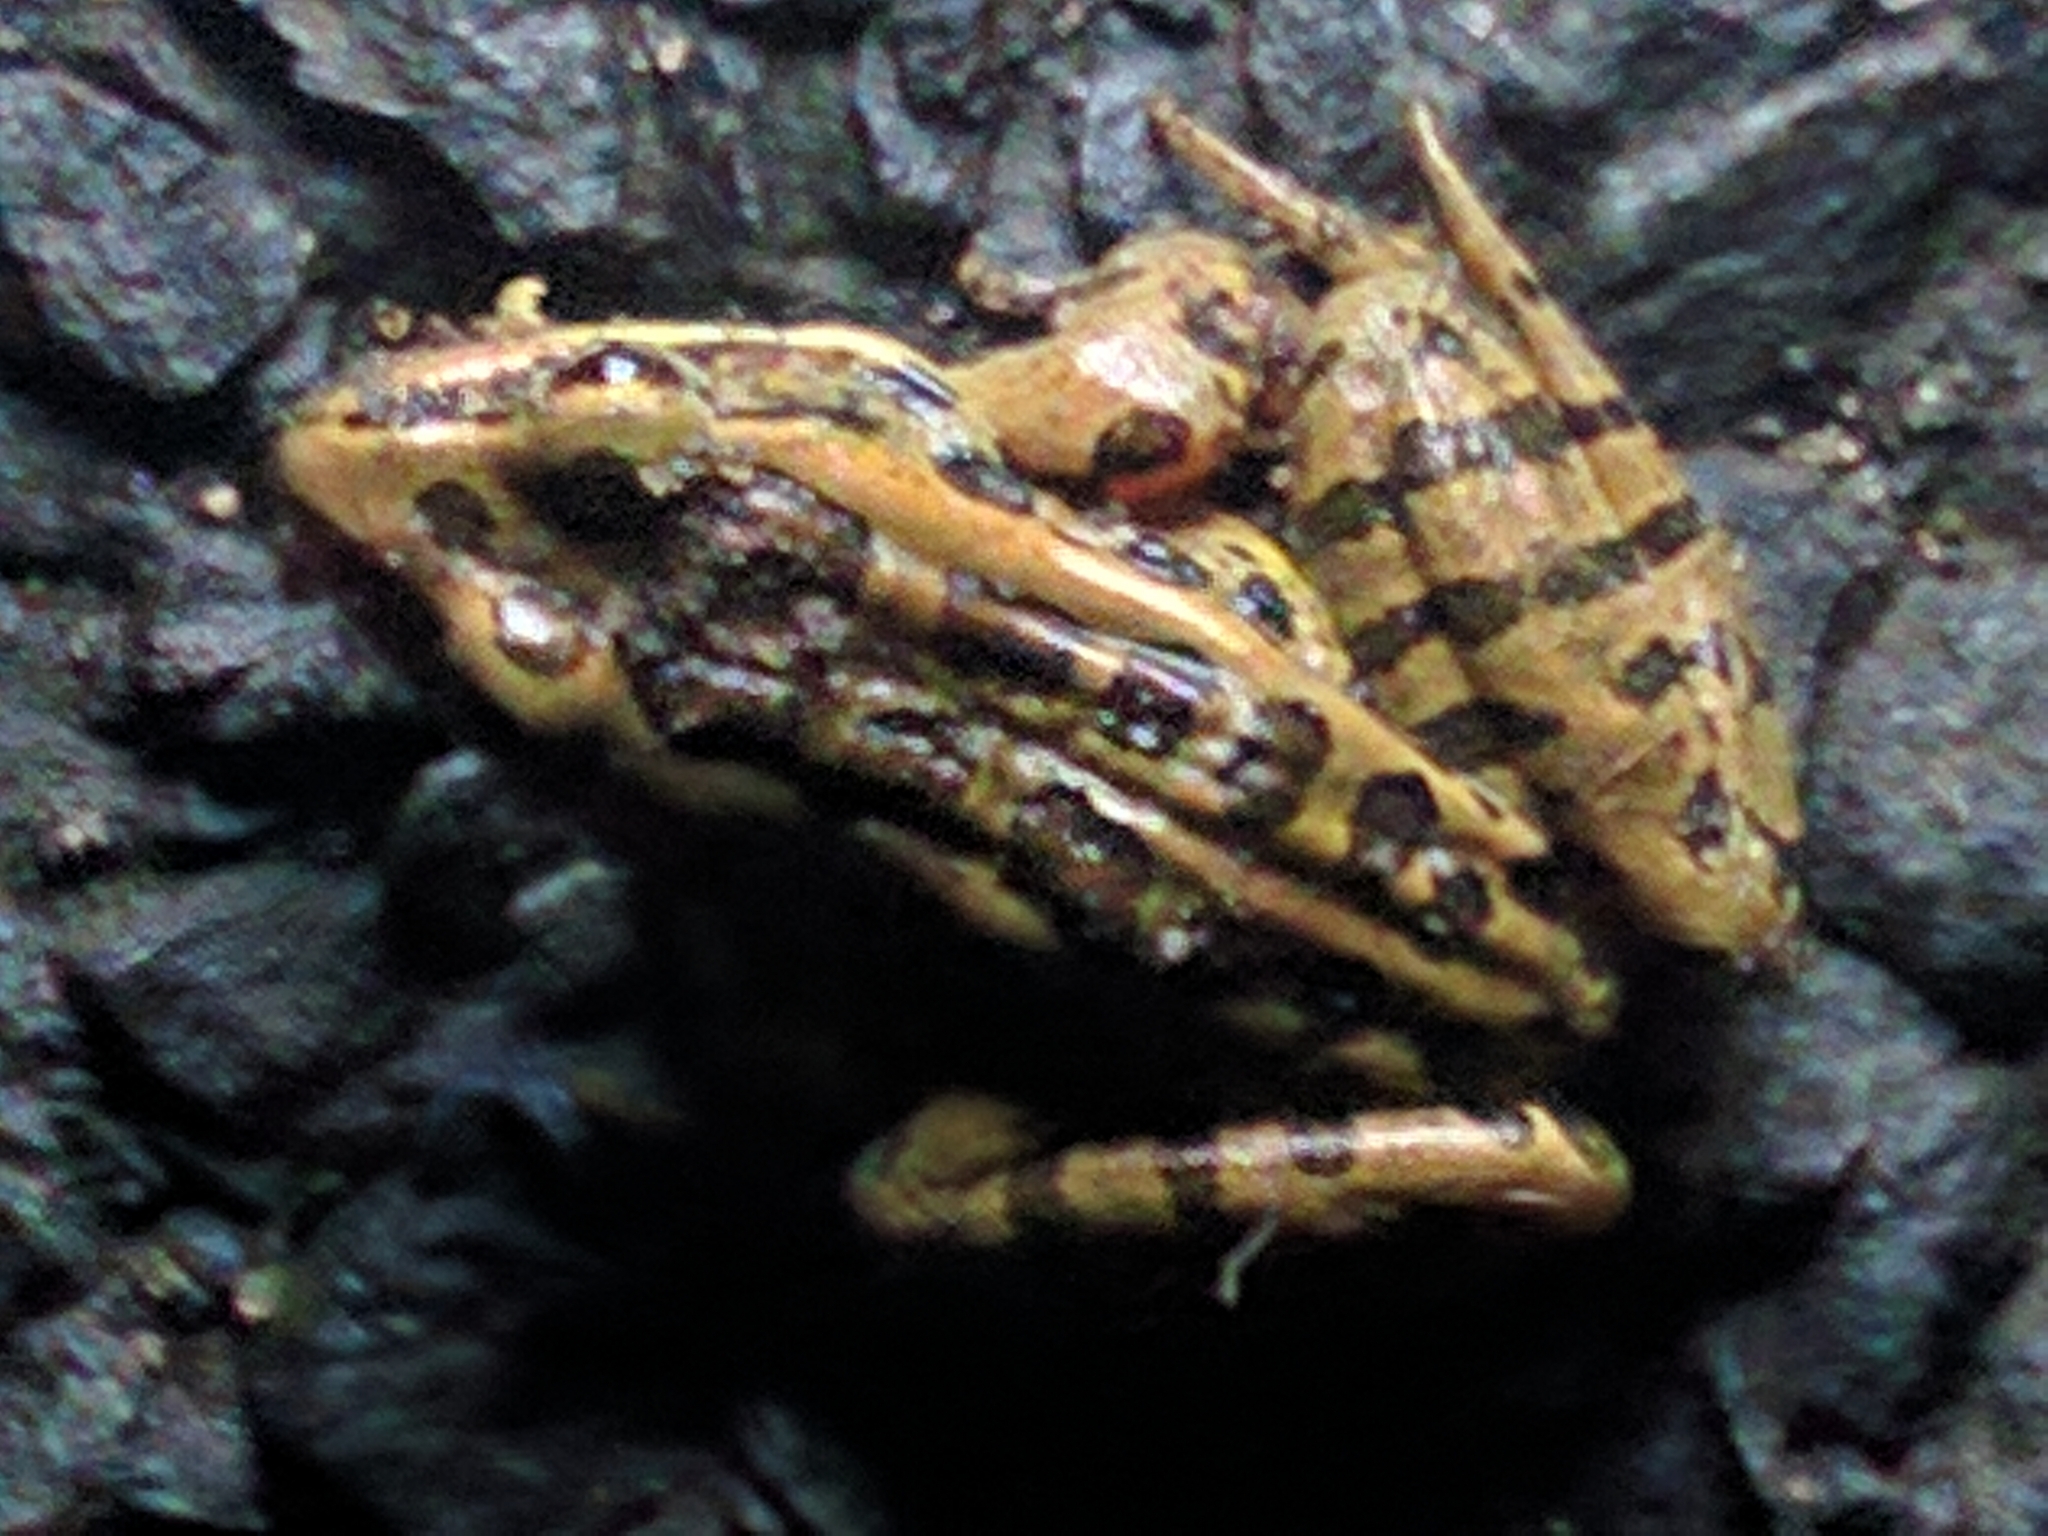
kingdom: Animalia
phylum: Chordata
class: Amphibia
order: Anura
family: Ranidae
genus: Lithobates
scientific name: Lithobates palustris
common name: Pickerel frog
